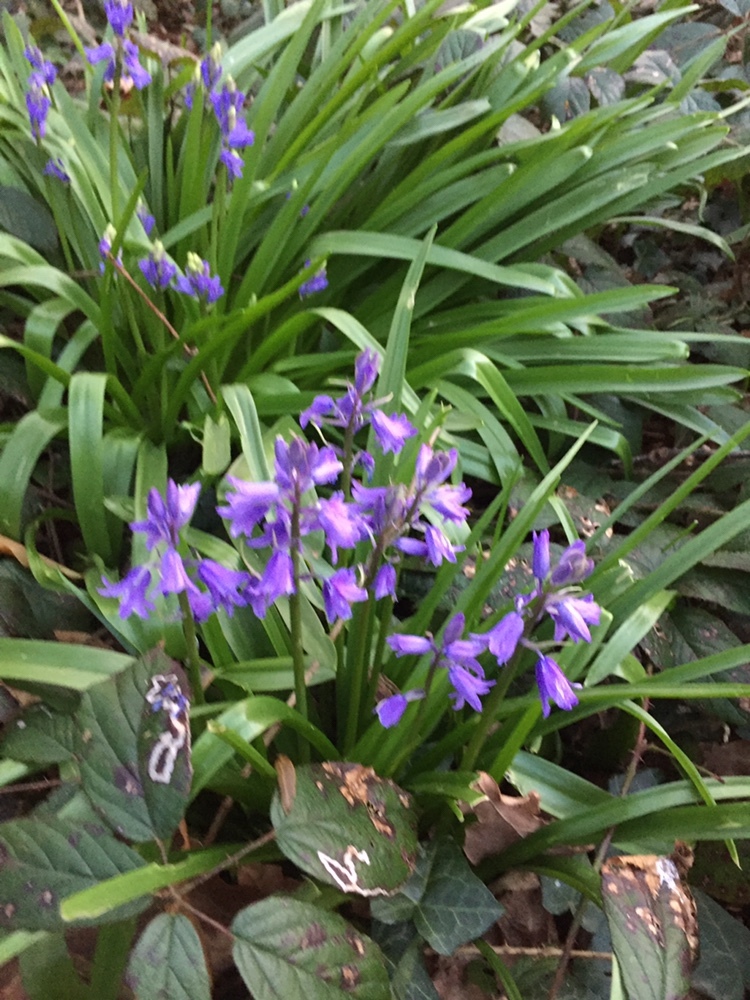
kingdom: Plantae
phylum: Tracheophyta
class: Liliopsida
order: Asparagales
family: Asparagaceae
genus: Hyacinthoides
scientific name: Hyacinthoides massartiana
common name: Hyacinthoides
